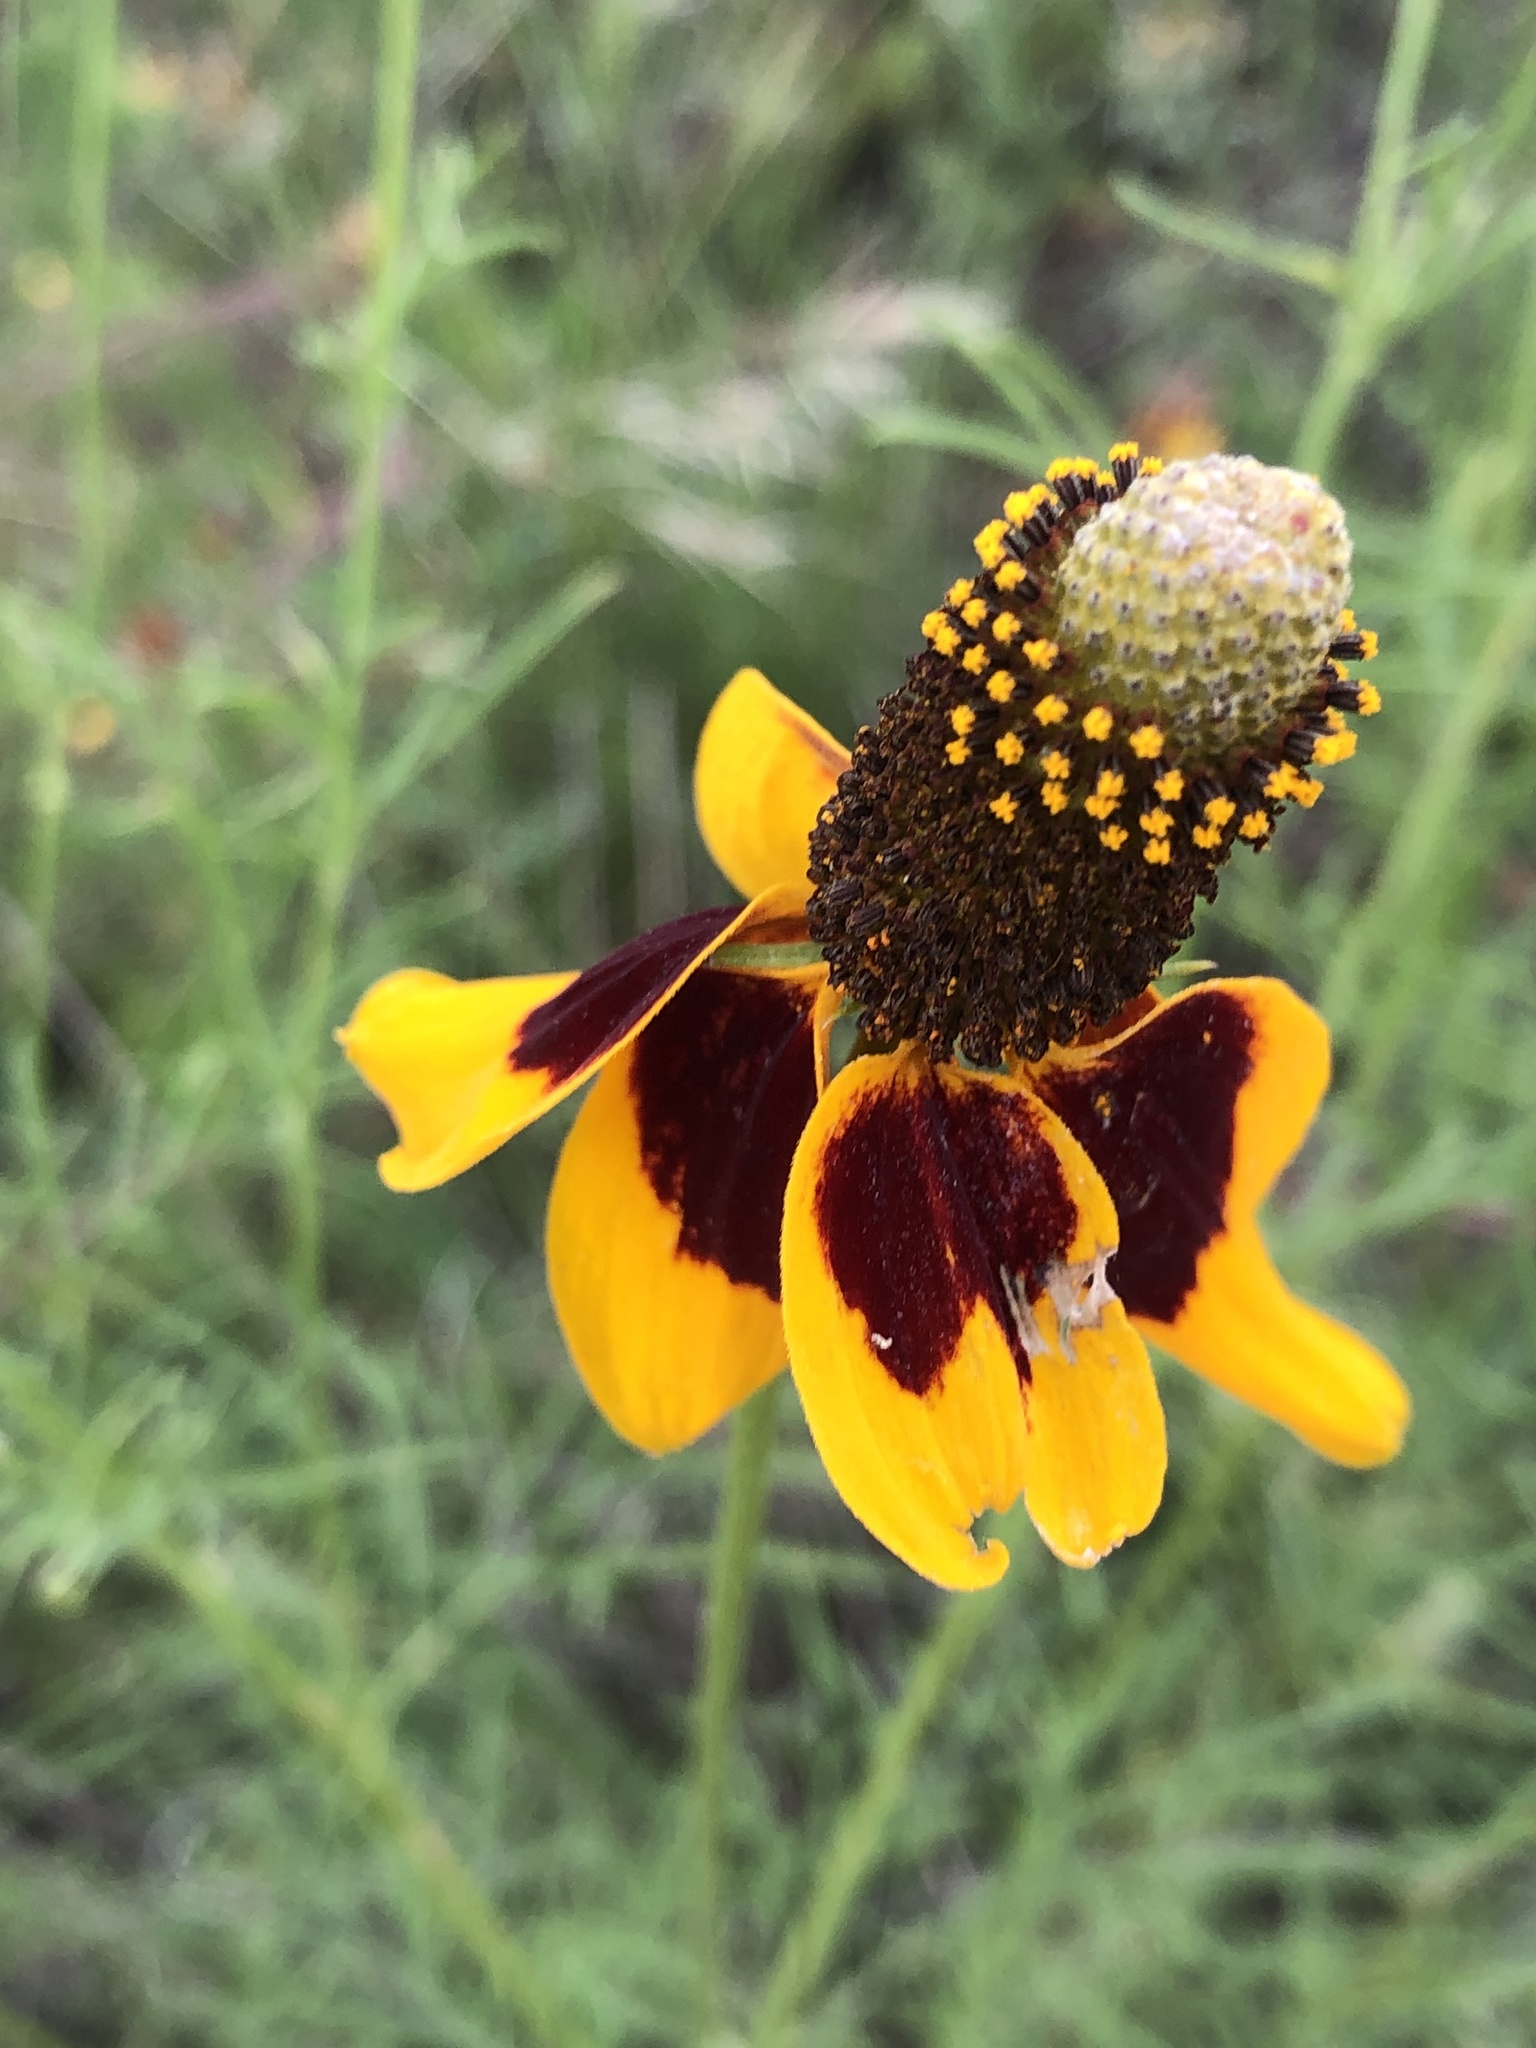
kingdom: Plantae
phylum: Tracheophyta
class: Magnoliopsida
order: Asterales
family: Asteraceae
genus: Ratibida
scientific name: Ratibida columnifera
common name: Prairie coneflower
